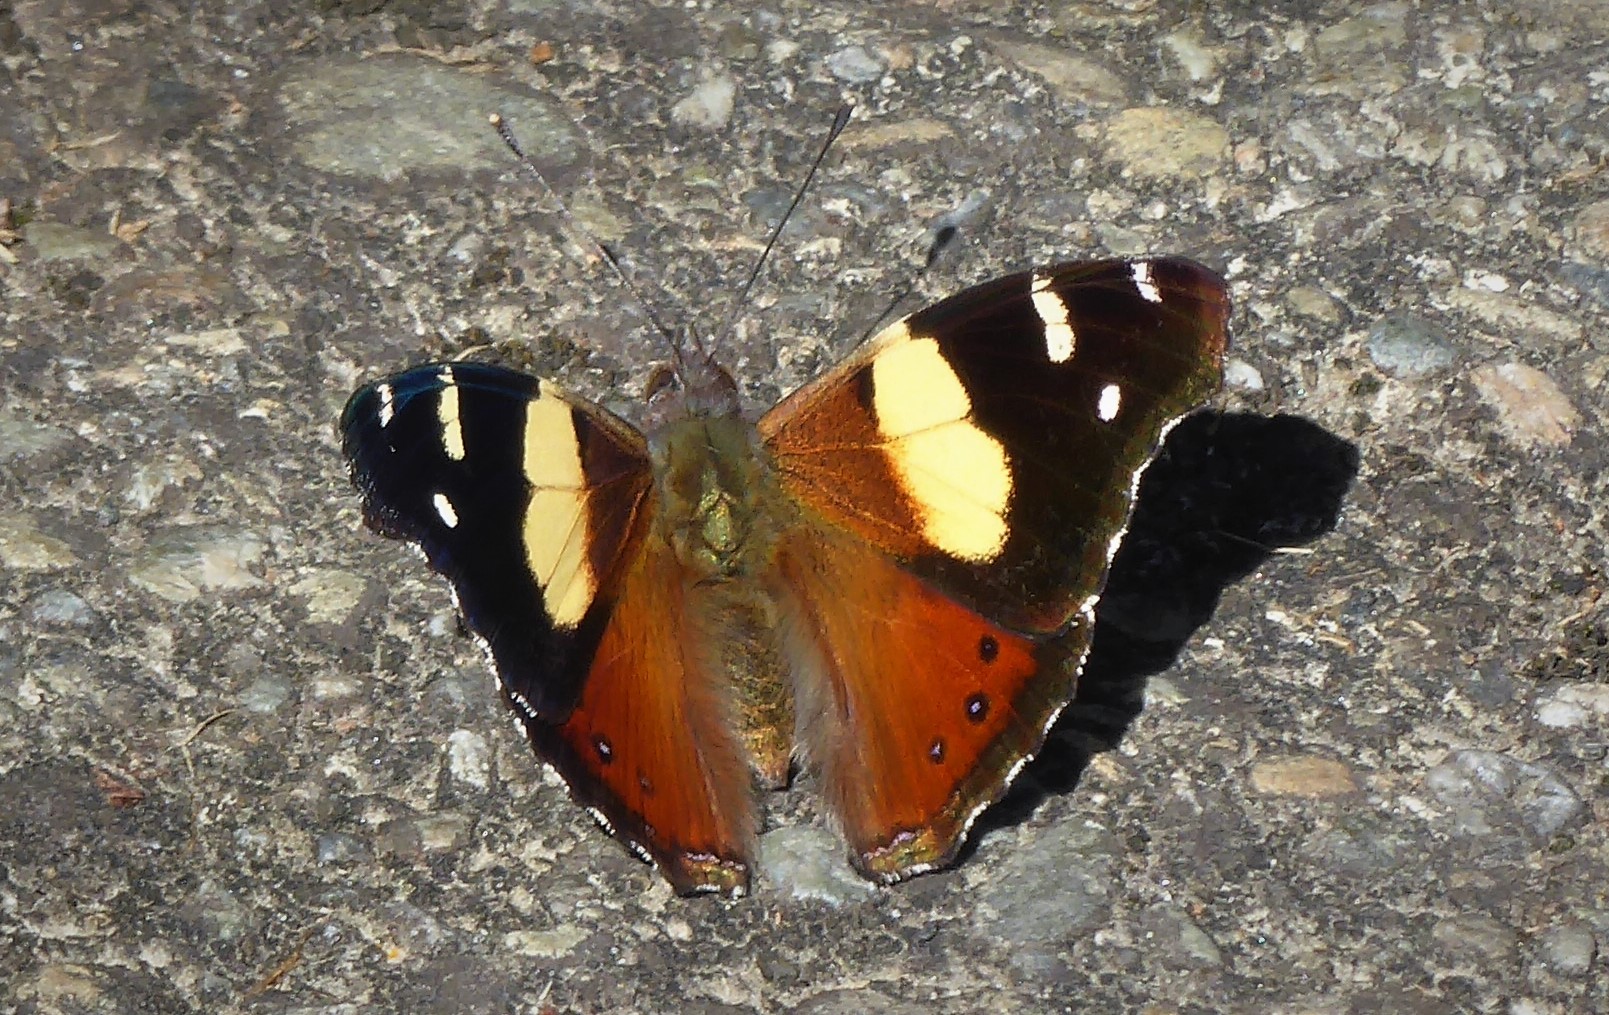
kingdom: Animalia
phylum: Arthropoda
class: Insecta
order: Lepidoptera
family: Nymphalidae
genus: Vanessa
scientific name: Vanessa itea
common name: Yellow admiral
